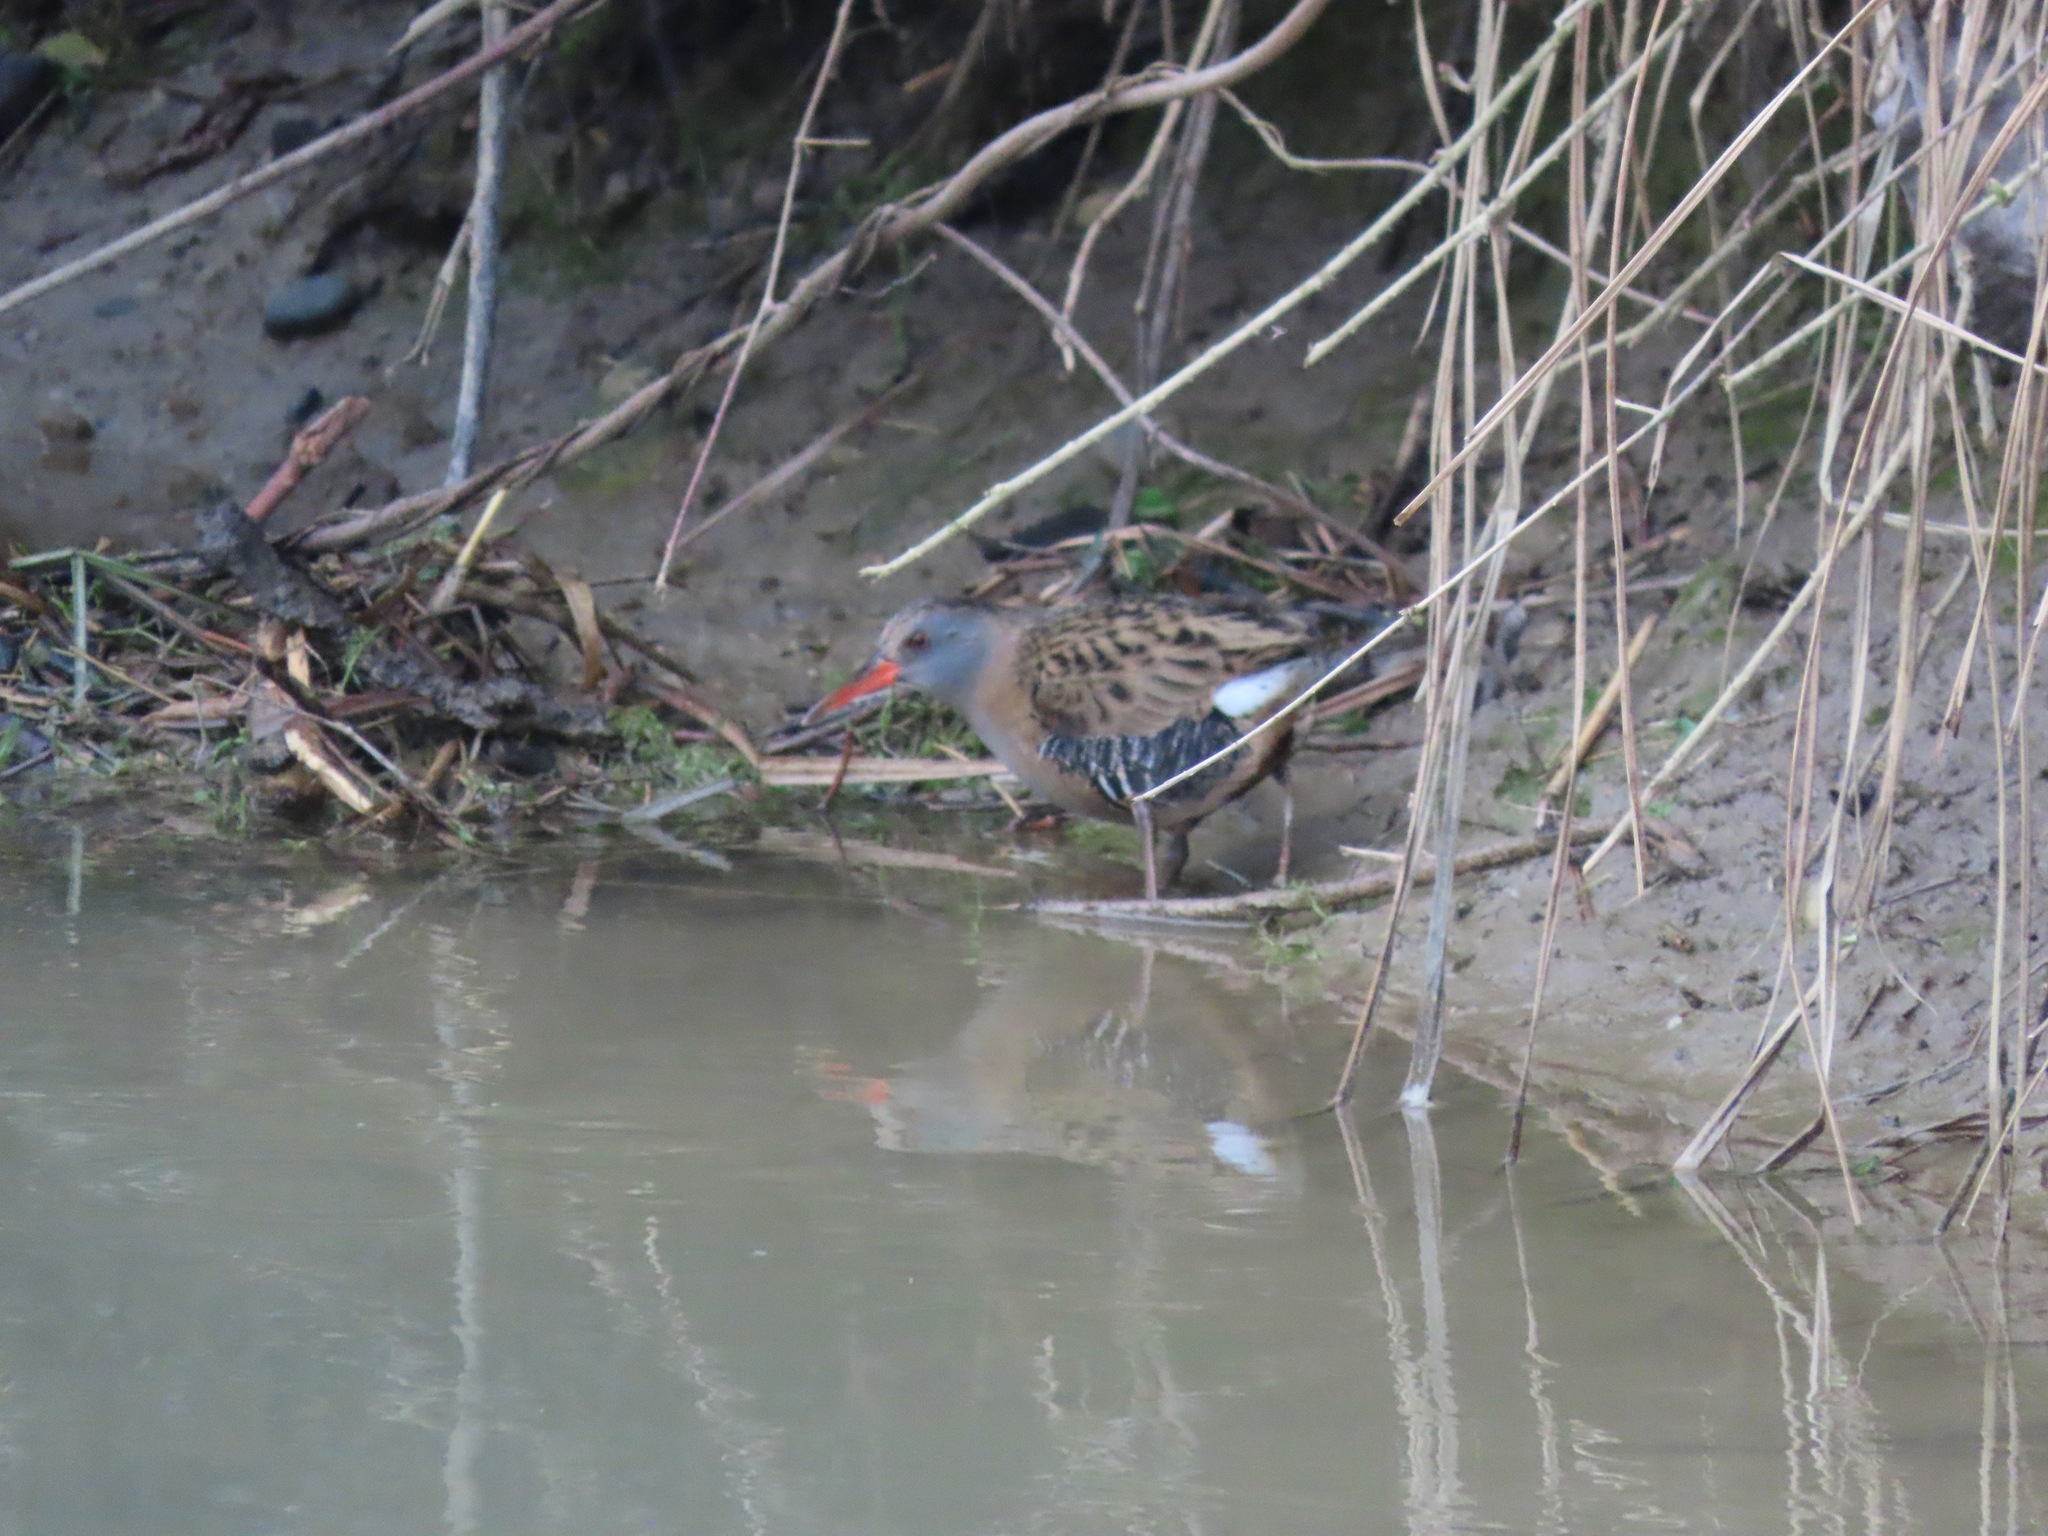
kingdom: Animalia
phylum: Chordata
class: Aves
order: Gruiformes
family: Rallidae
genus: Rallus
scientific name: Rallus aquaticus
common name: Water rail
